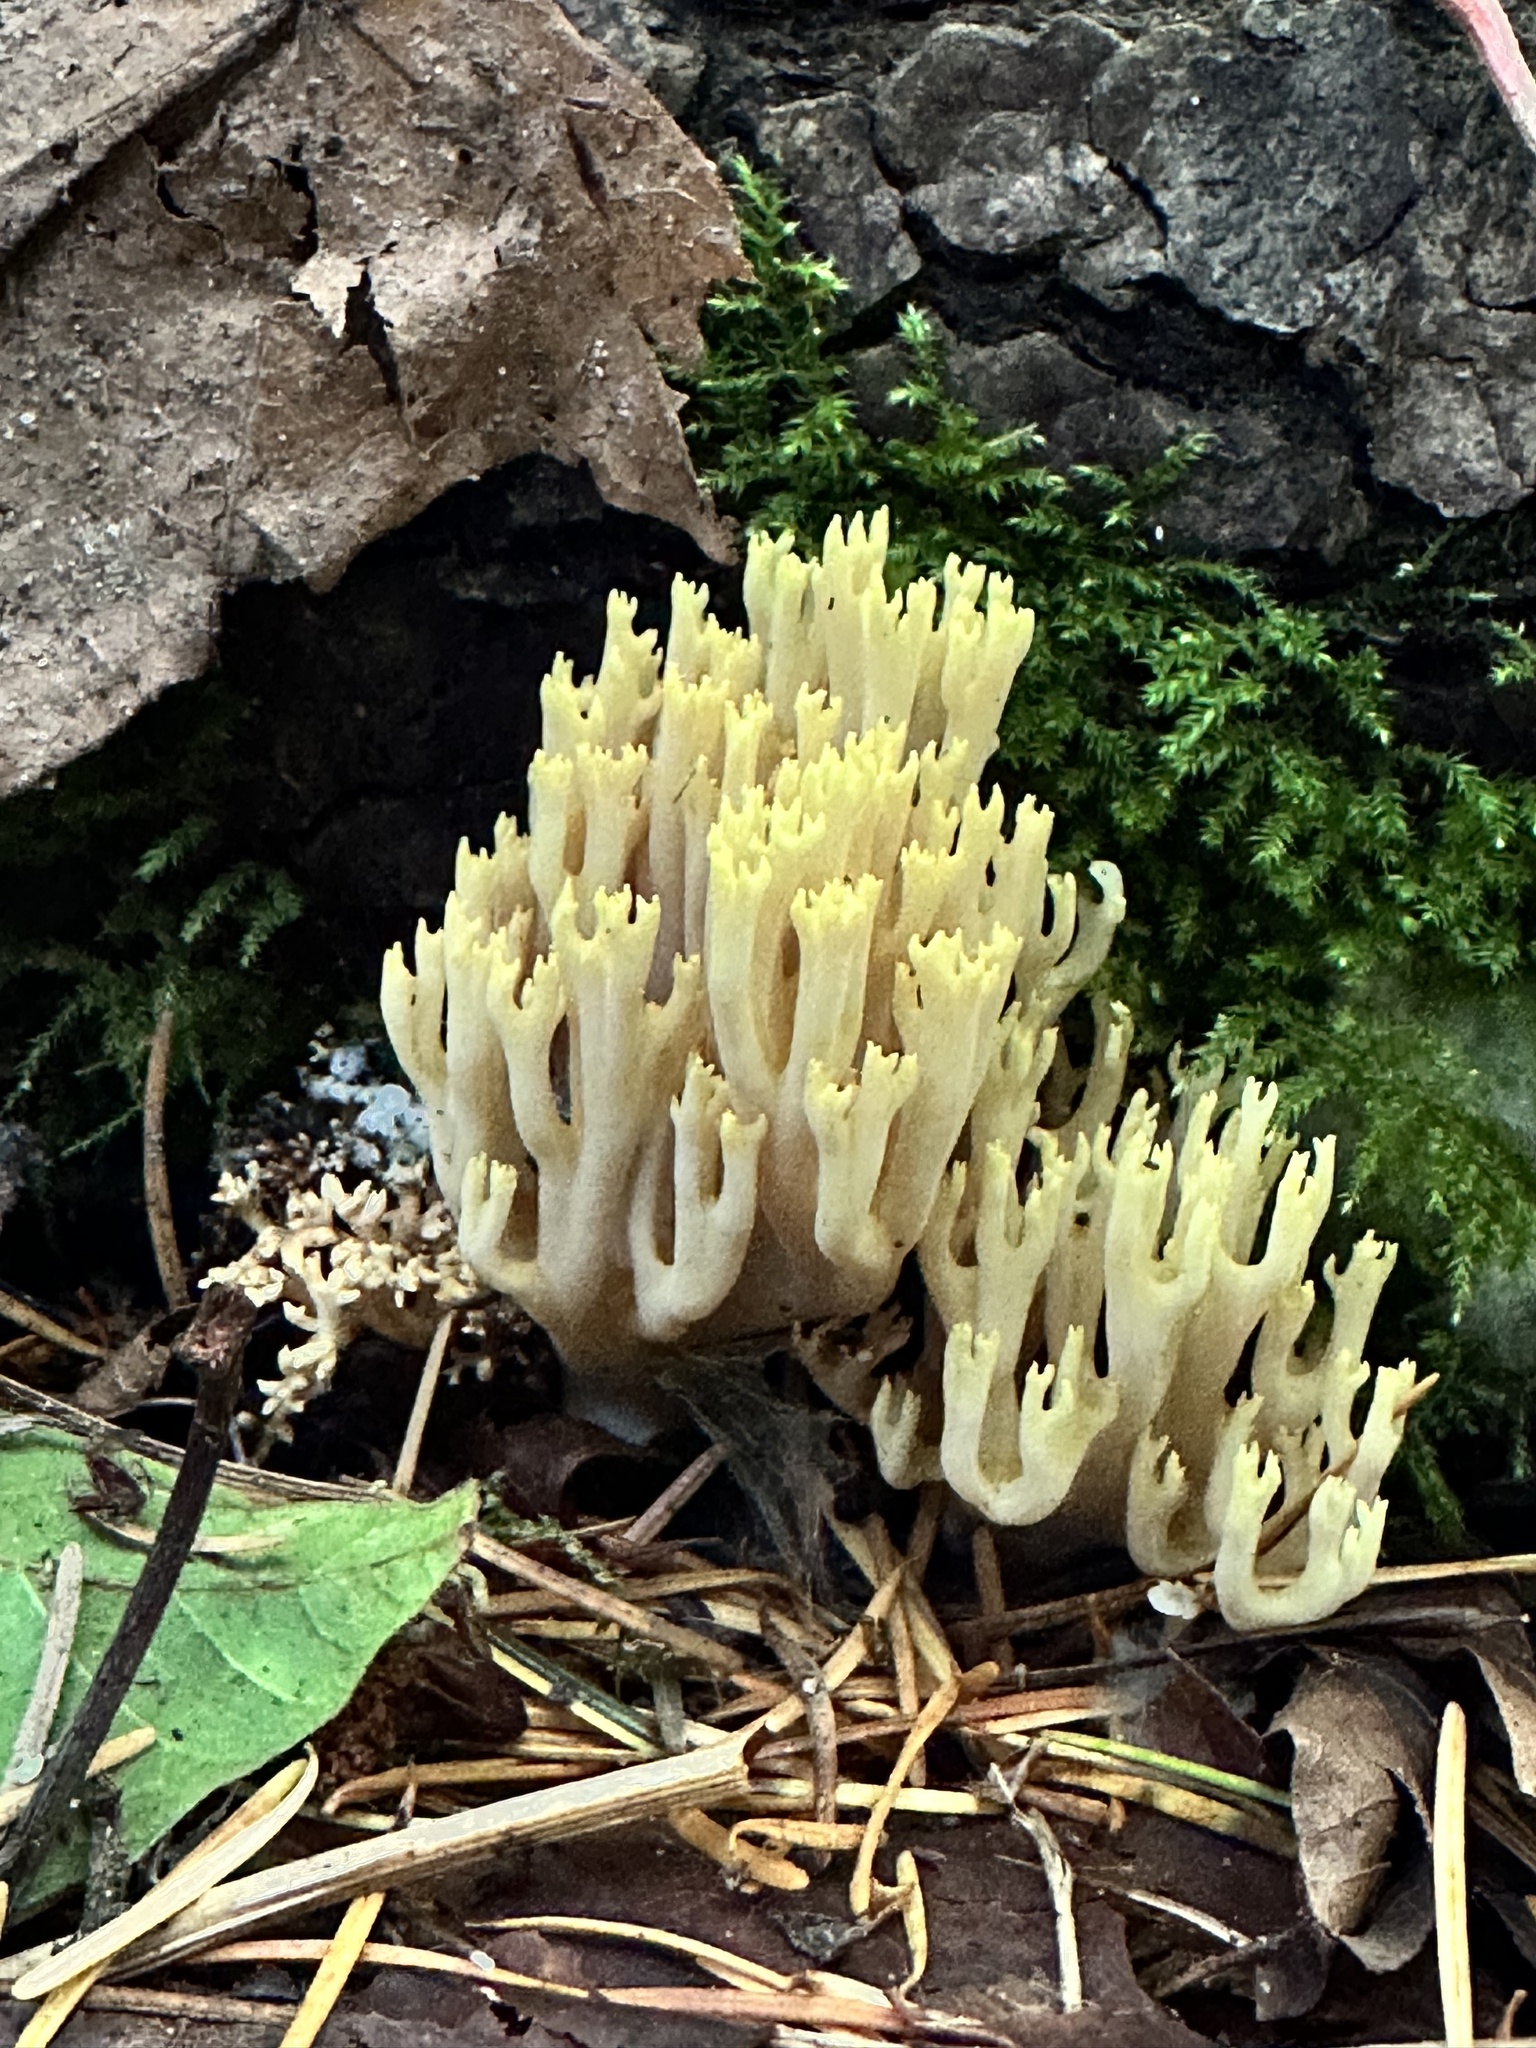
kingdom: Fungi
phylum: Basidiomycota
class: Agaricomycetes
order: Gomphales
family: Gomphaceae
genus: Ramaria
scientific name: Ramaria cystidiophora
